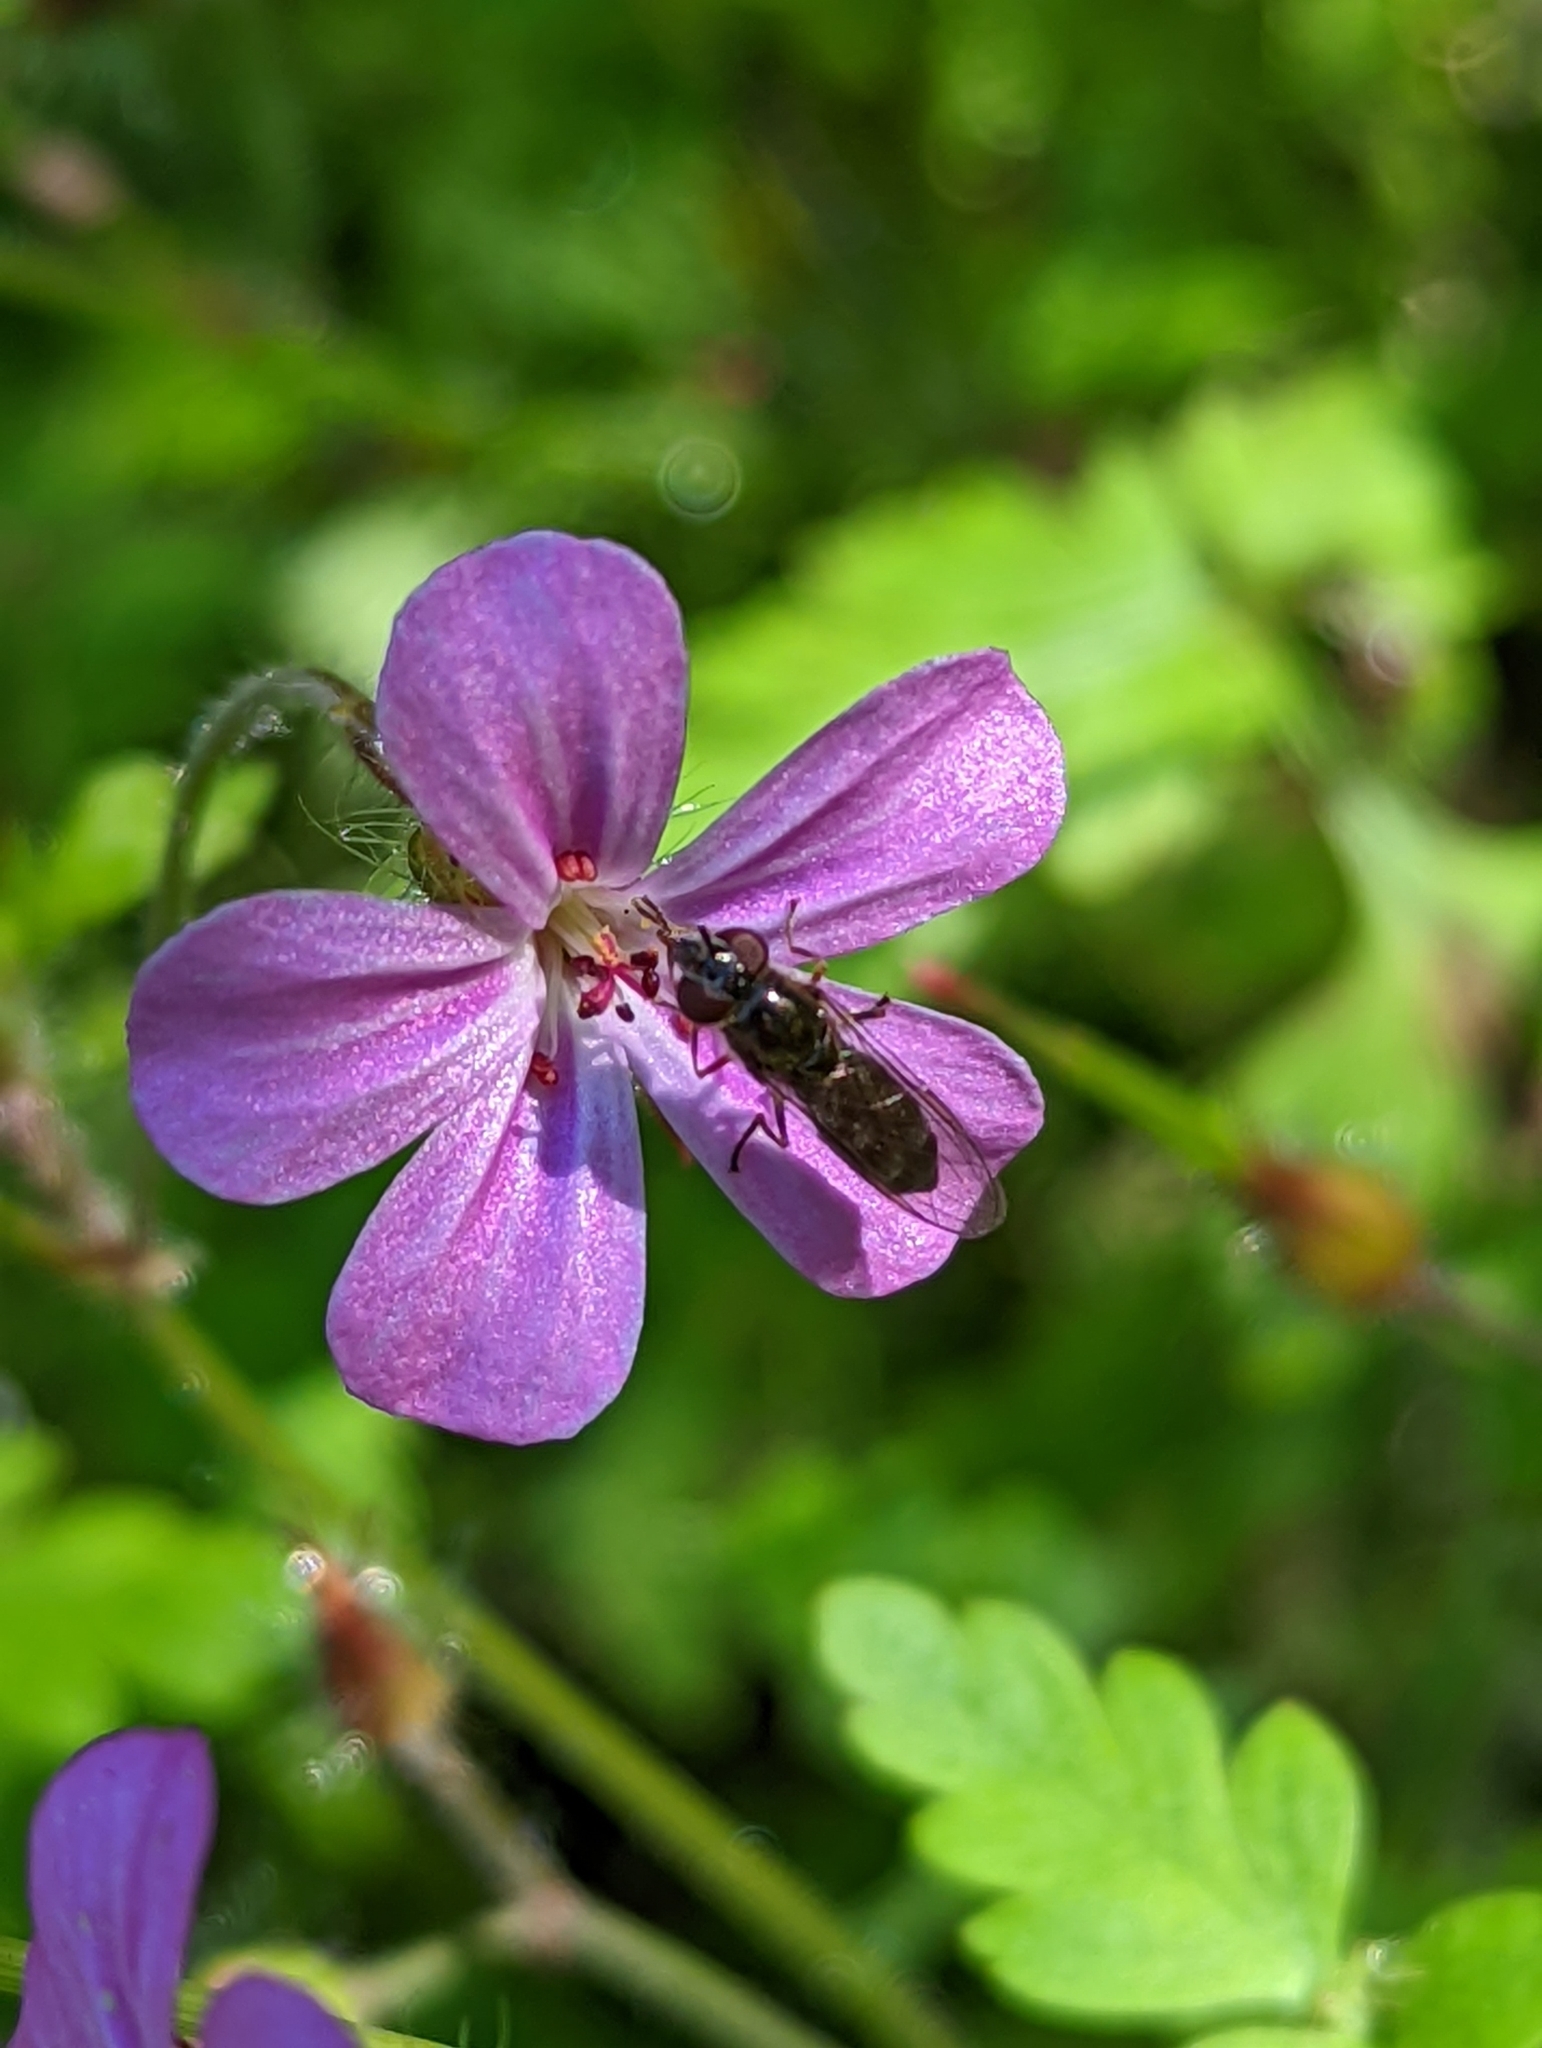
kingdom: Animalia
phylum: Arthropoda
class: Insecta
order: Diptera
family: Syrphidae
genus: Platycheirus
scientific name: Platycheirus albimanus
